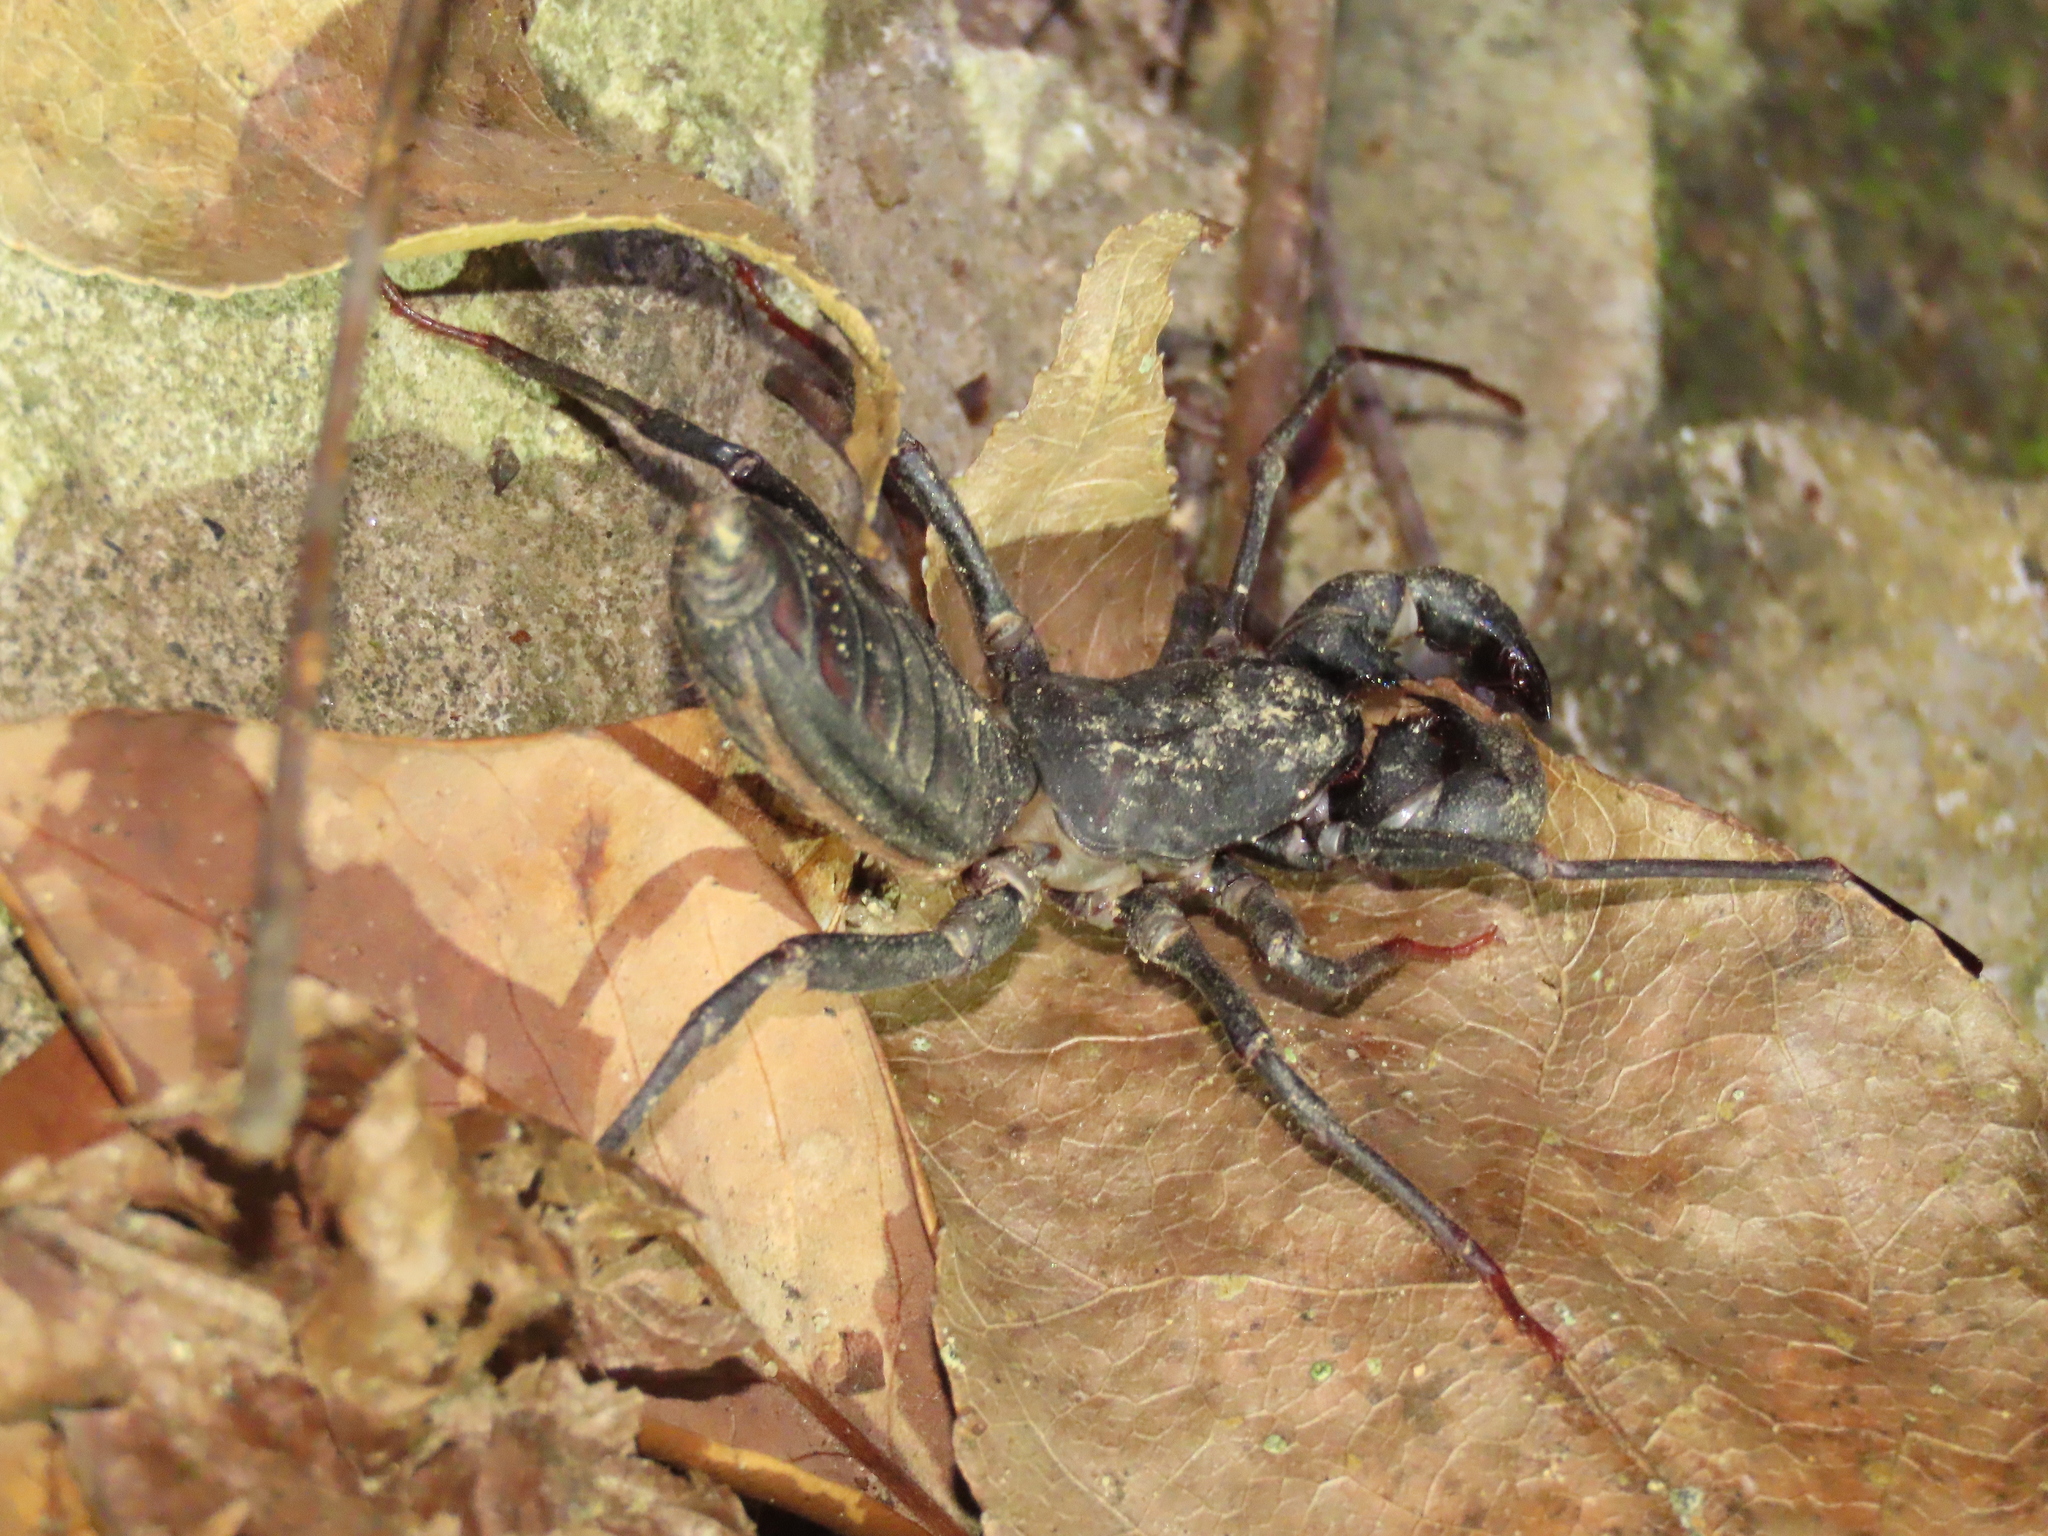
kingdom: Animalia
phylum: Arthropoda
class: Arachnida
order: Uropygi
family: Thelyphonidae
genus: Typopeltis
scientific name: Typopeltis crucifer
